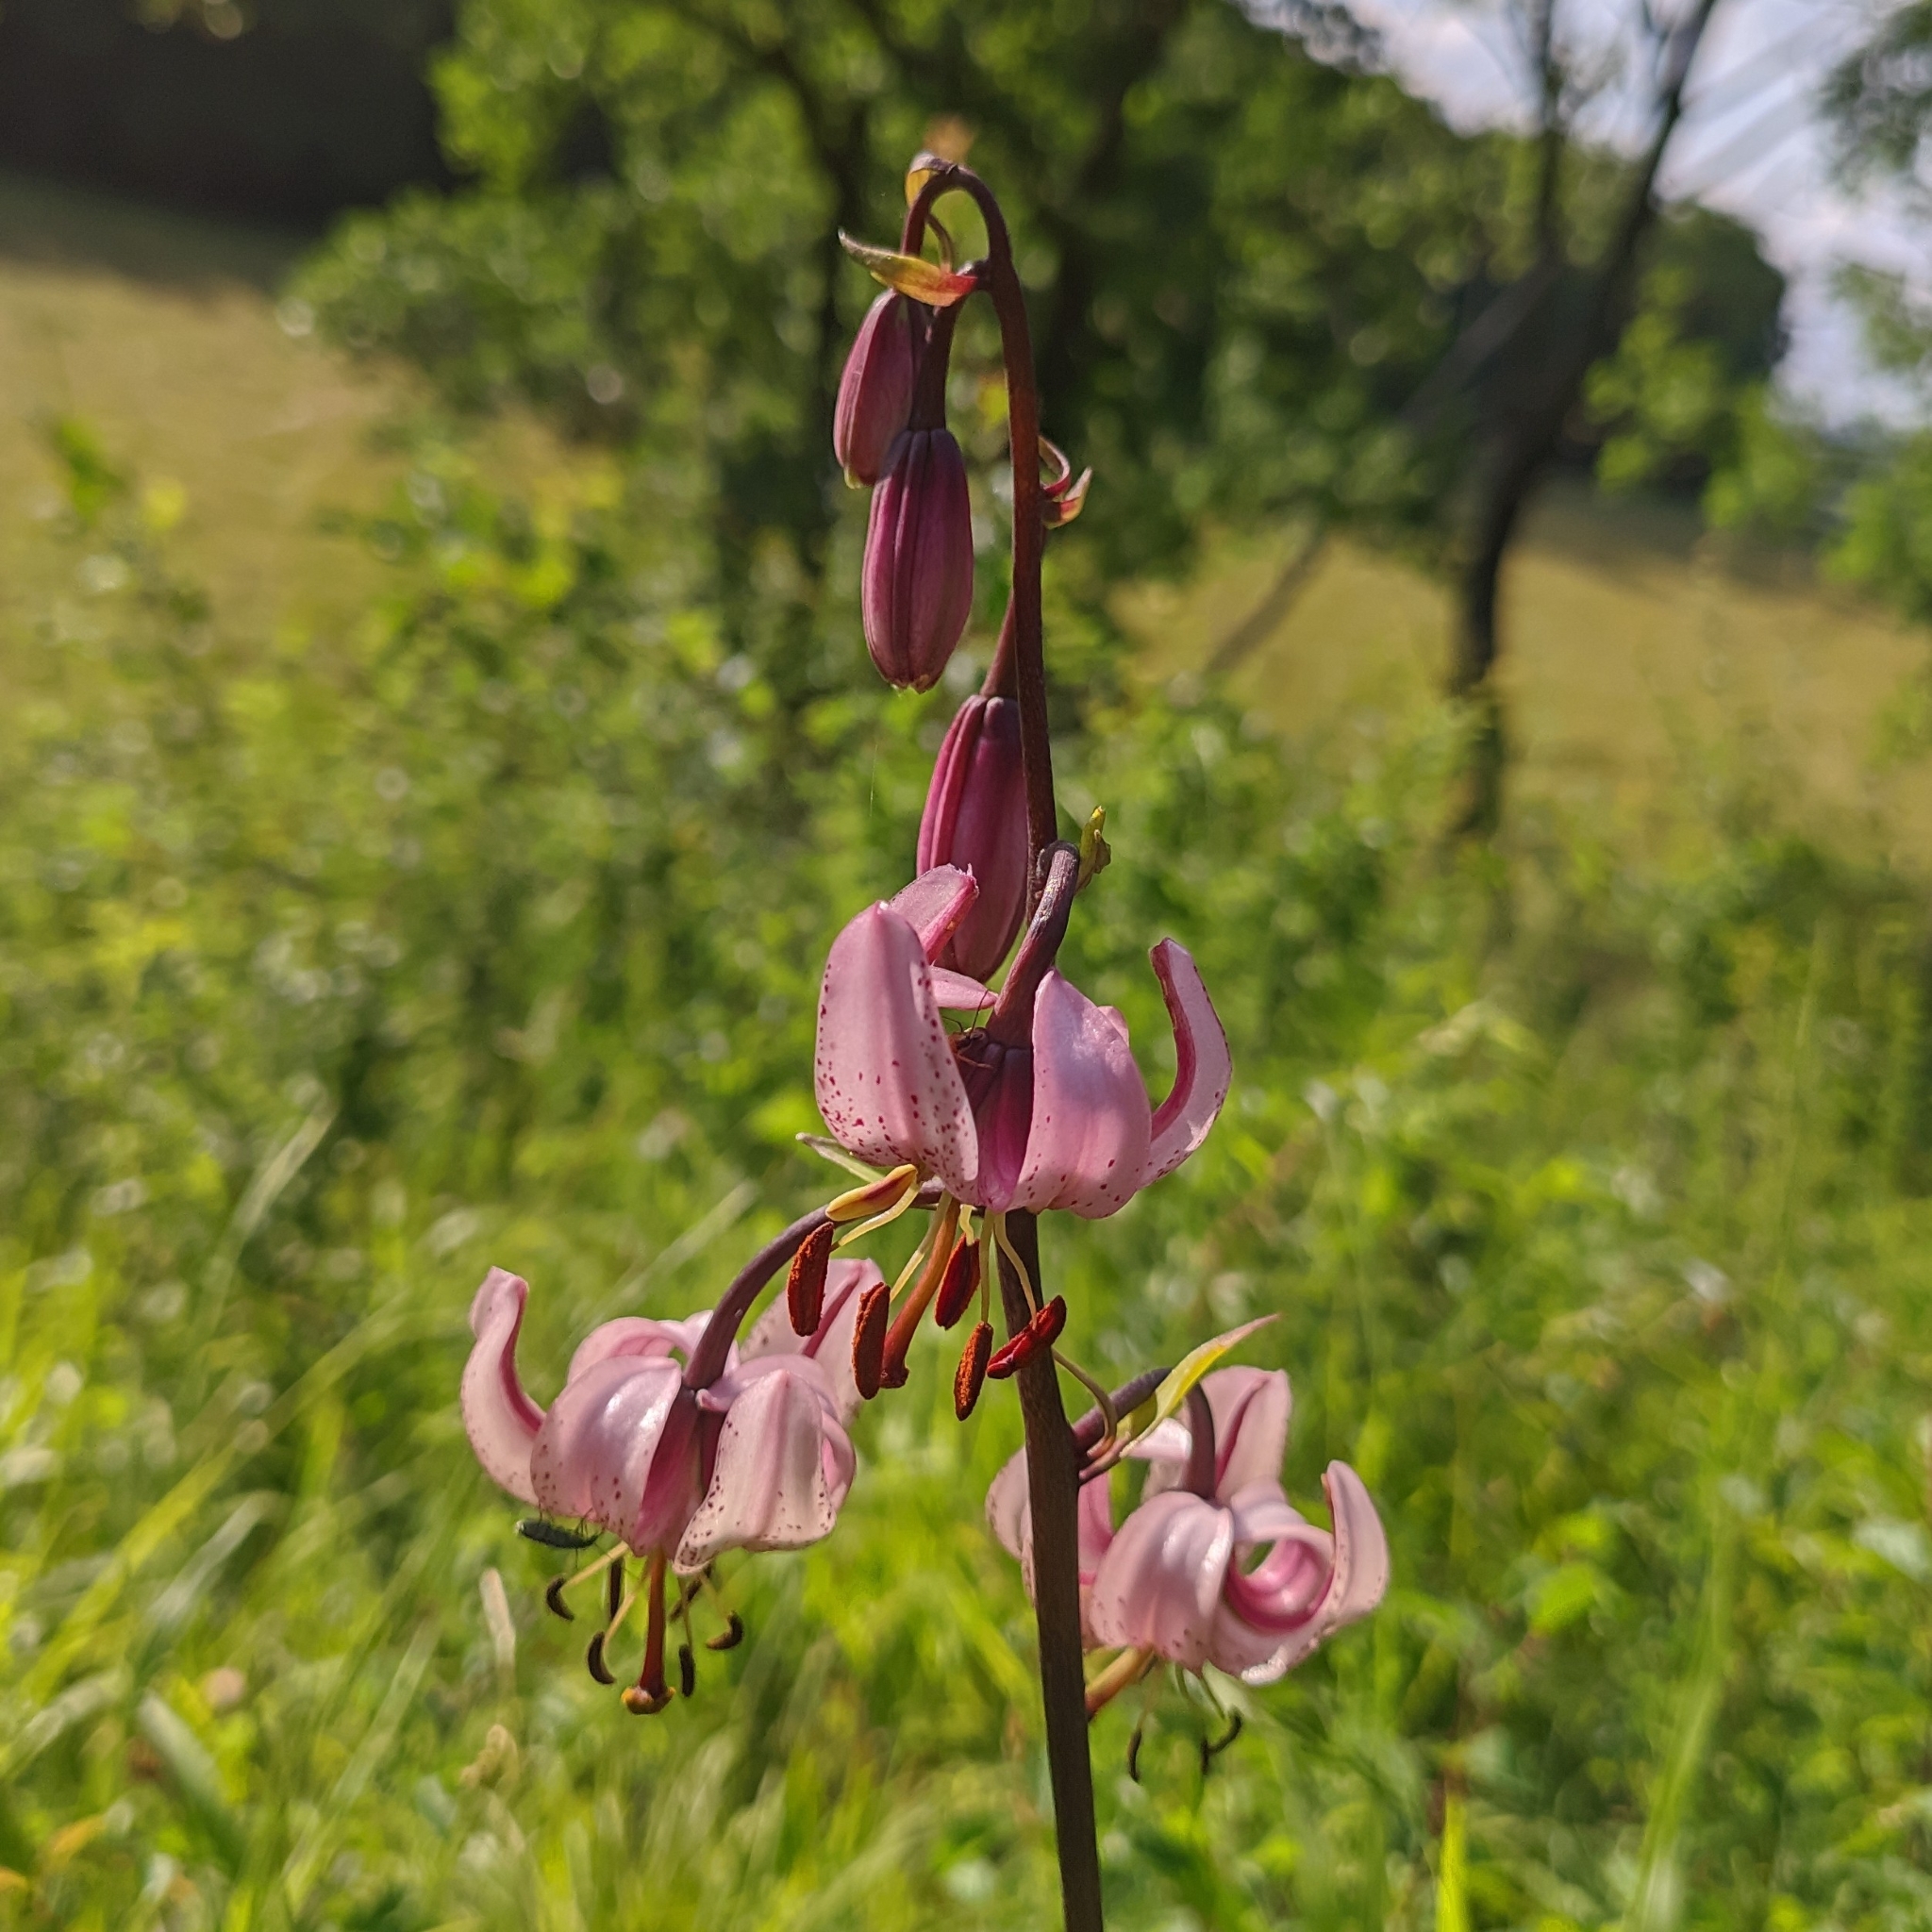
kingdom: Plantae
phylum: Tracheophyta
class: Liliopsida
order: Liliales
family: Liliaceae
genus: Lilium
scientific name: Lilium martagon
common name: Martagon lily
